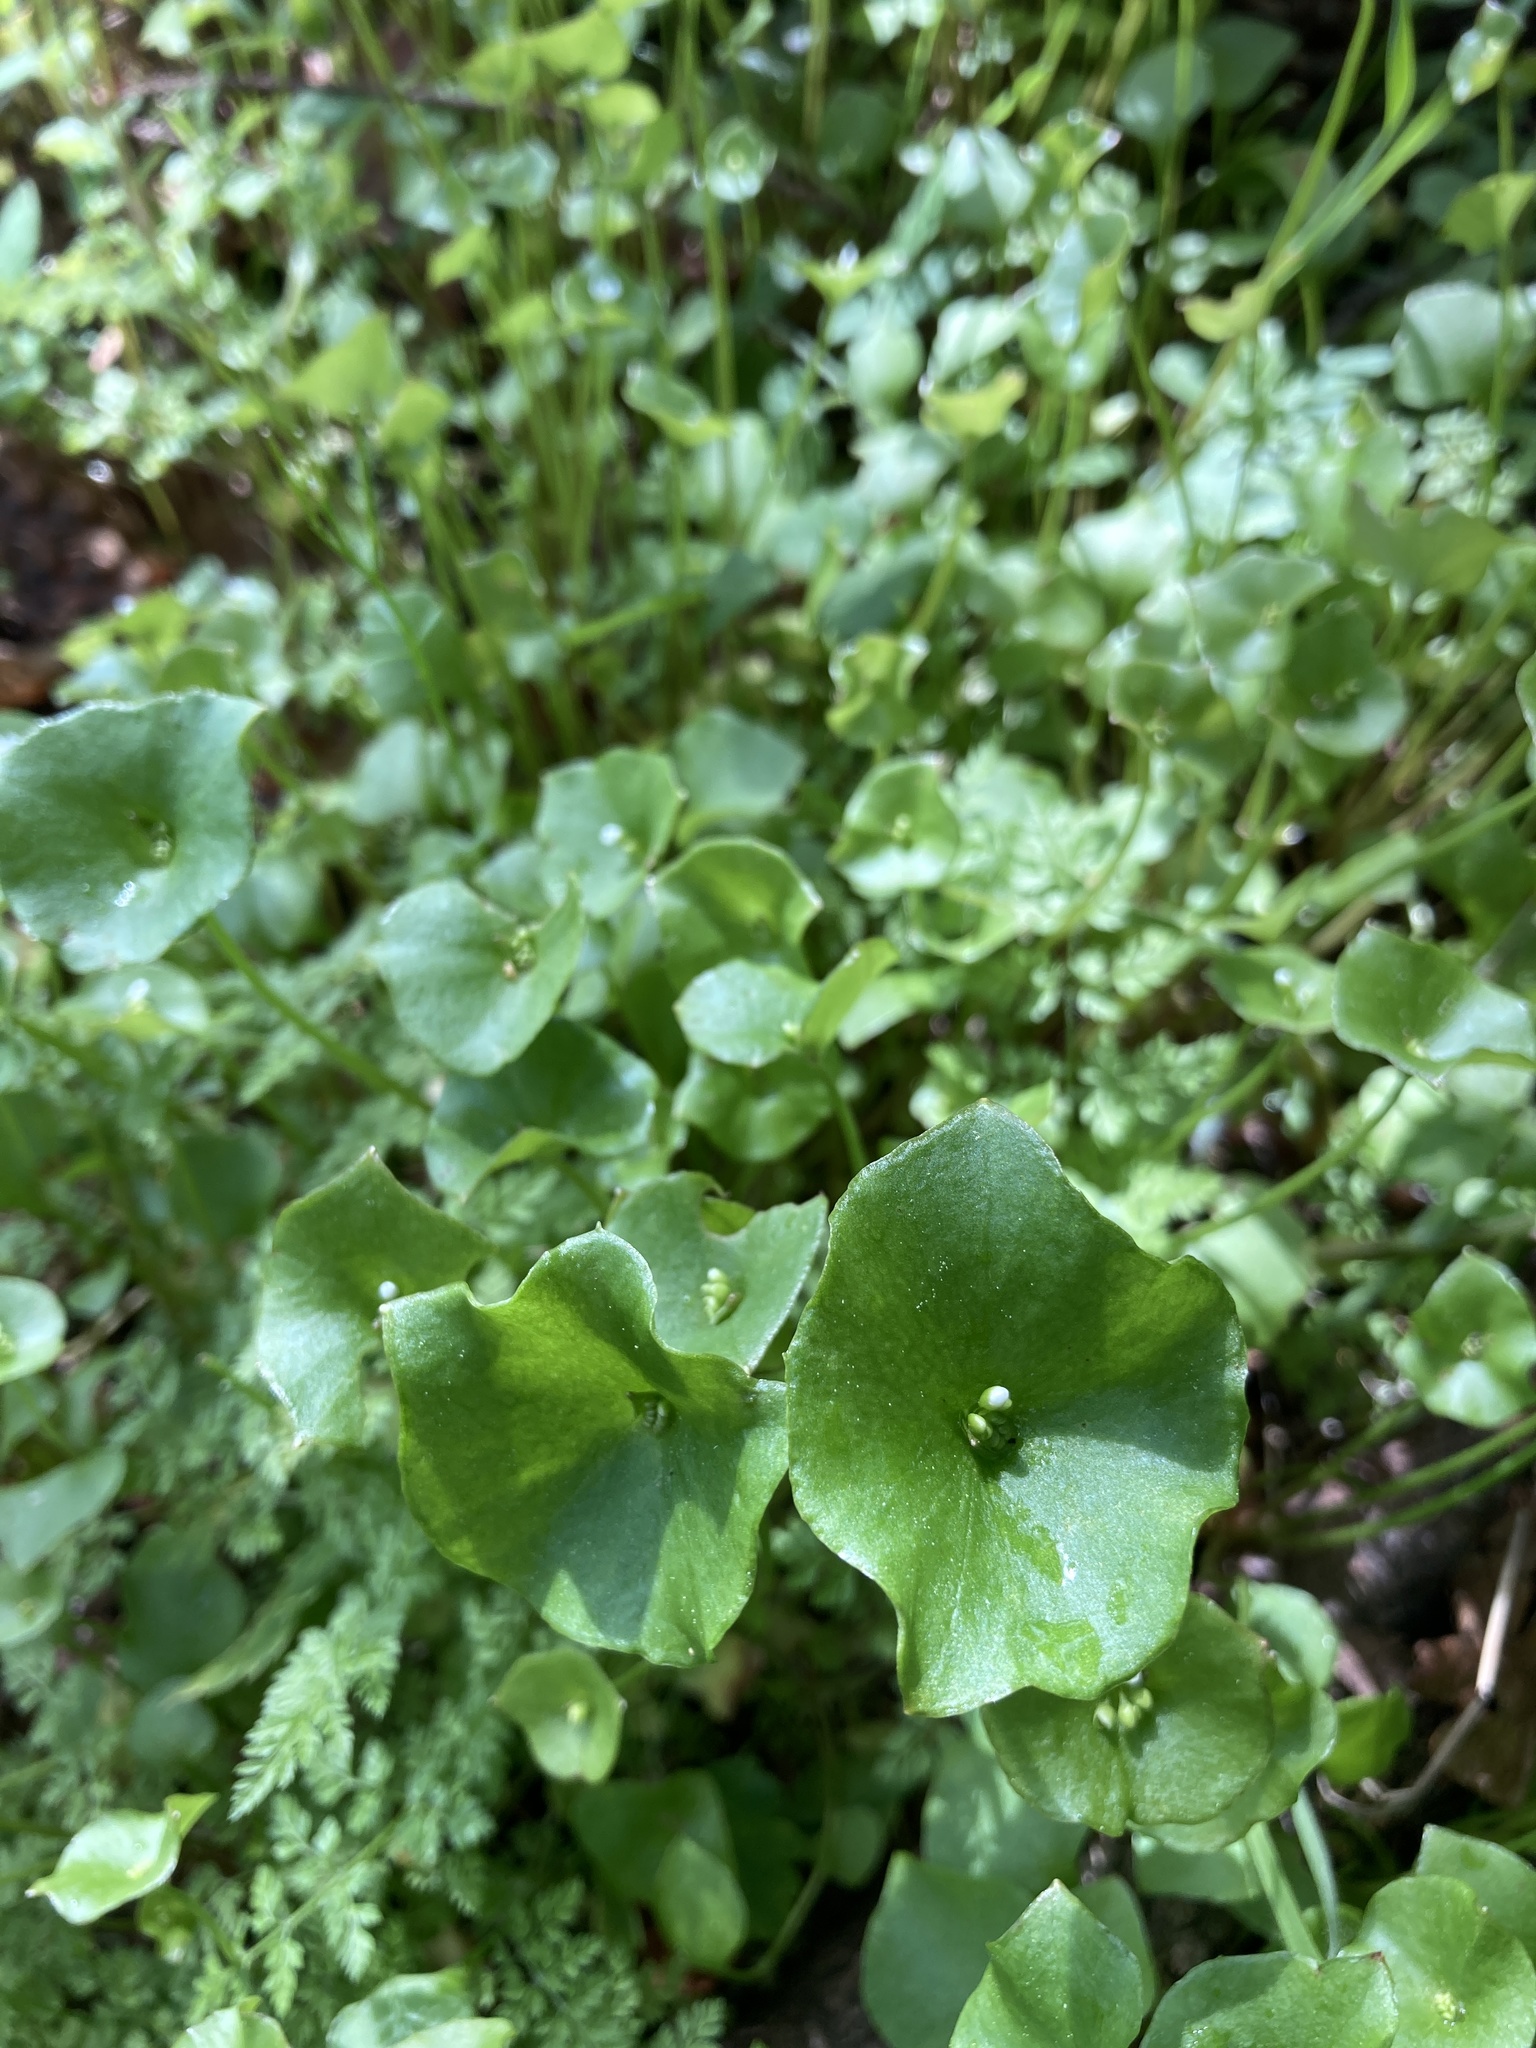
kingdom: Plantae
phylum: Tracheophyta
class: Magnoliopsida
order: Caryophyllales
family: Montiaceae
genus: Claytonia
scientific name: Claytonia perfoliata
